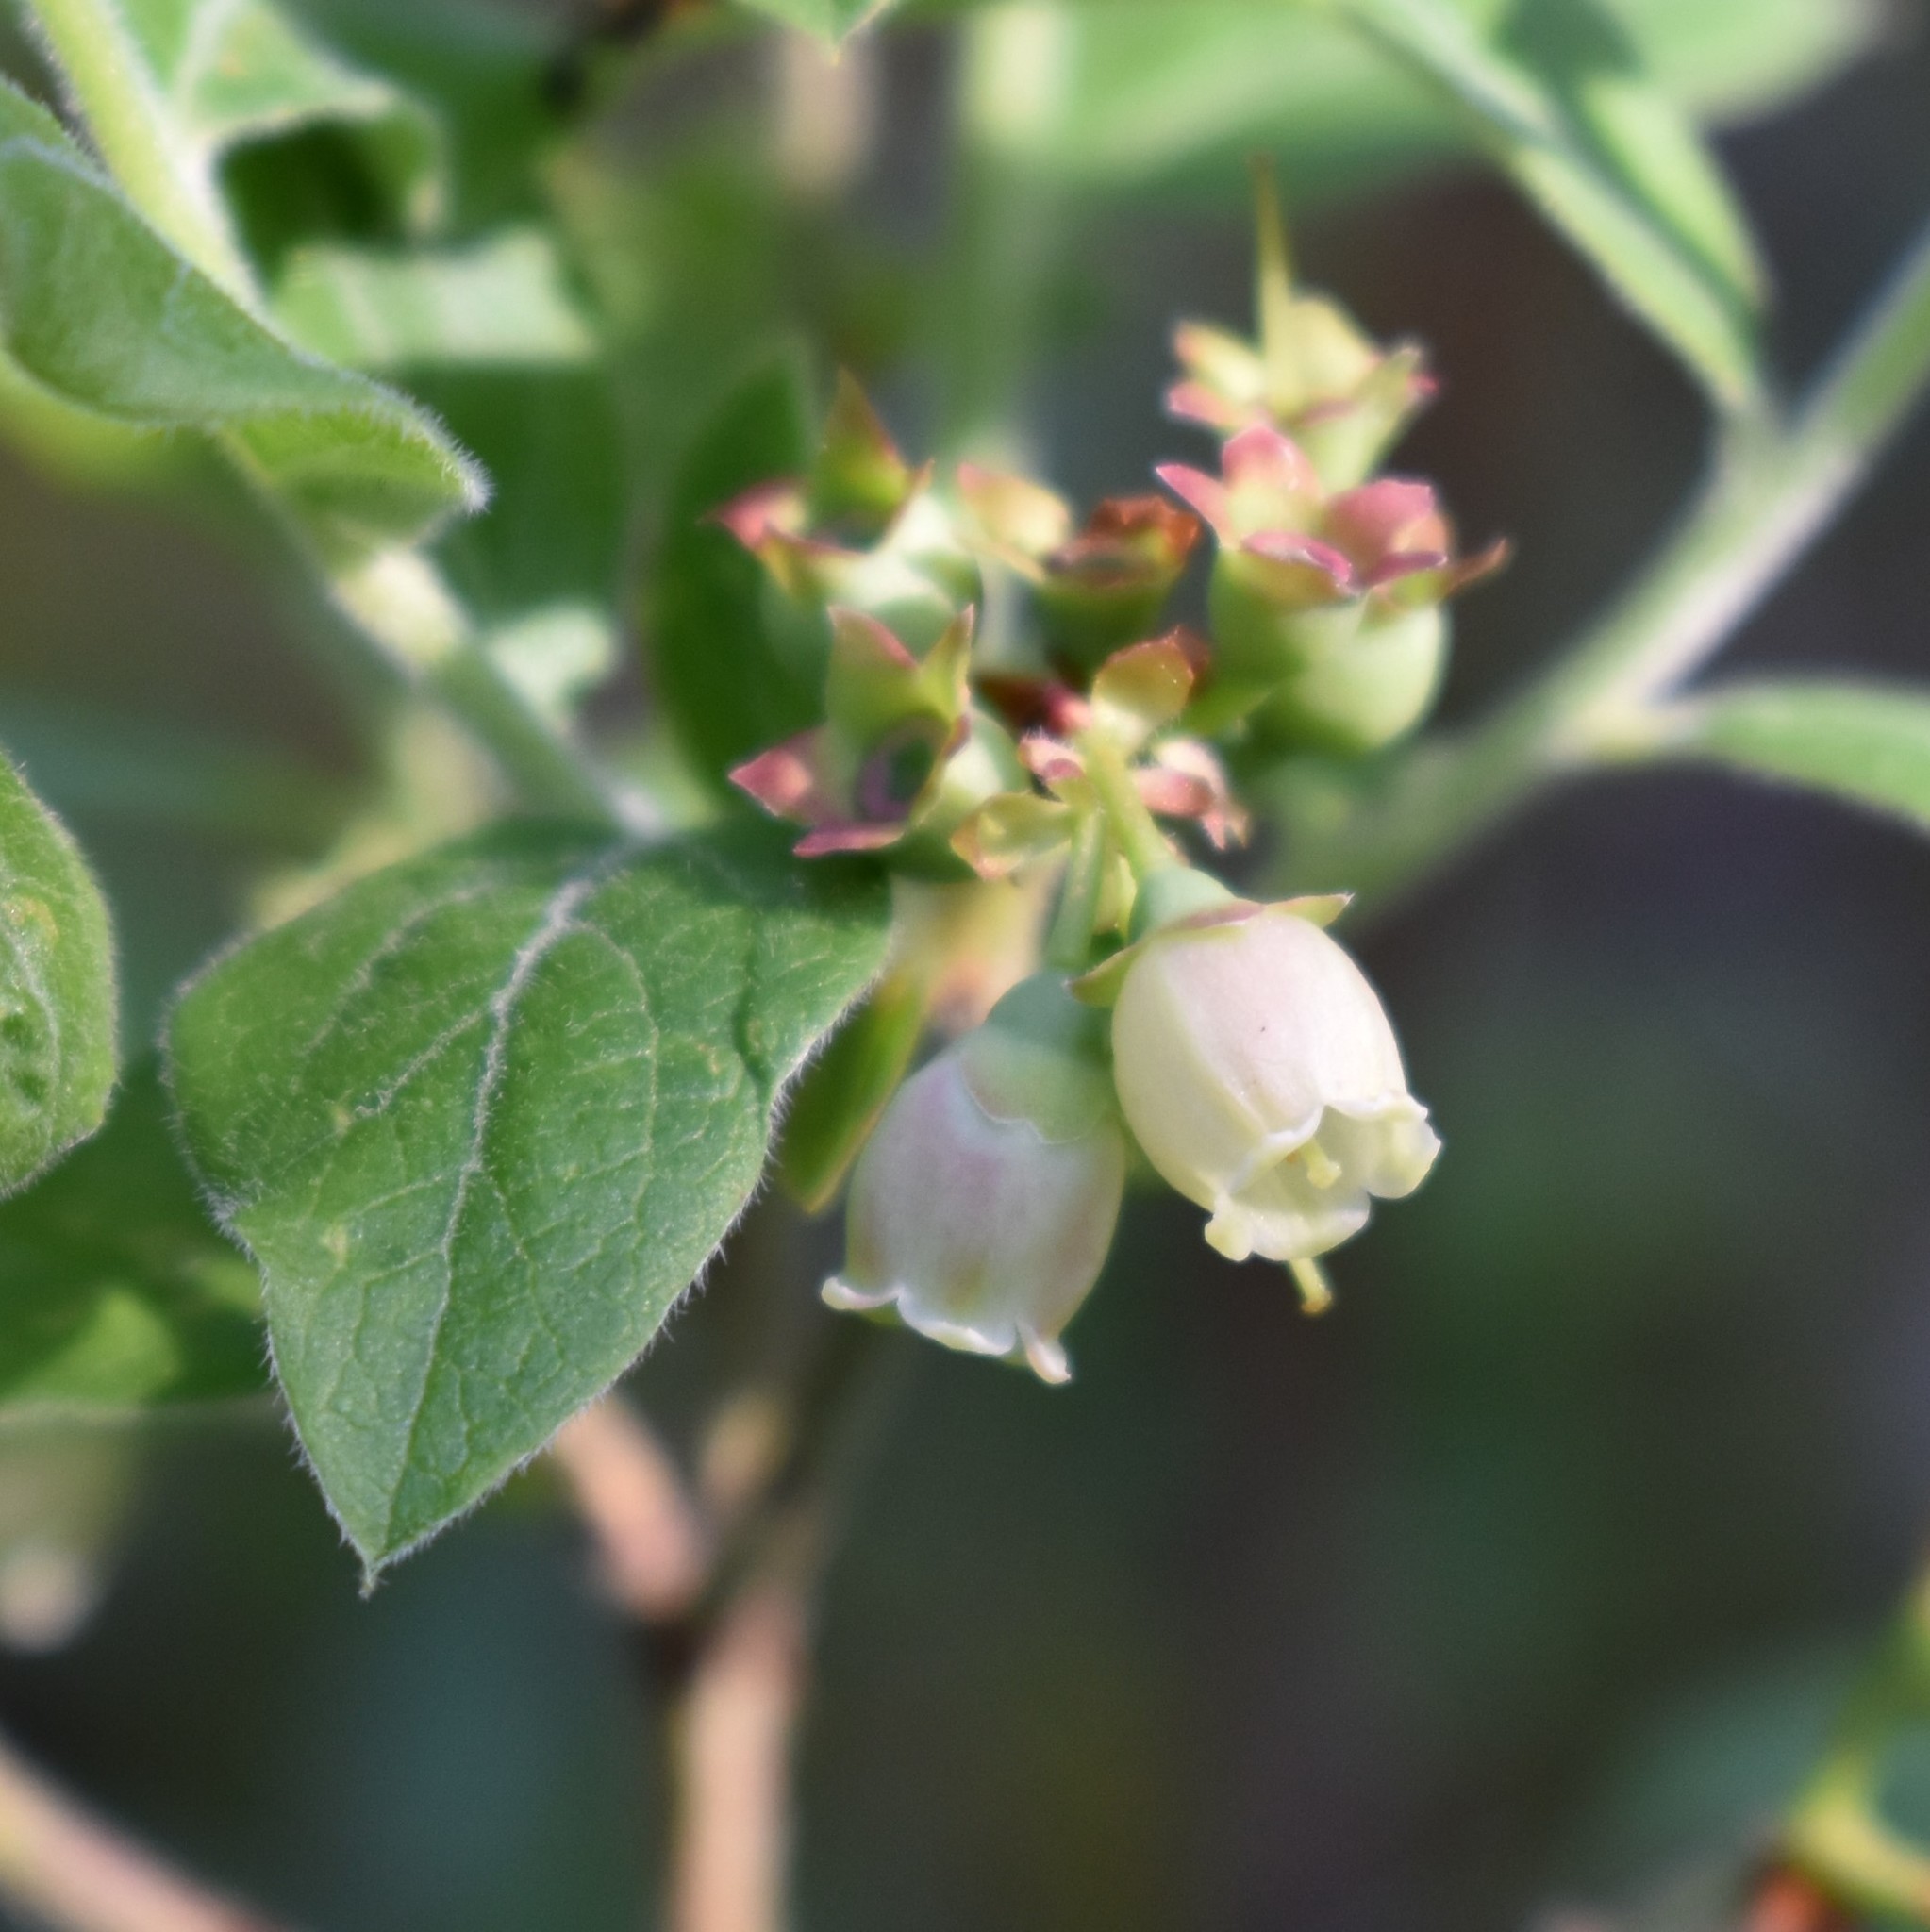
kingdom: Plantae
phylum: Tracheophyta
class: Magnoliopsida
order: Ericales
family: Ericaceae
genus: Vaccinium
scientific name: Vaccinium myrtilloides
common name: Canada blueberry
